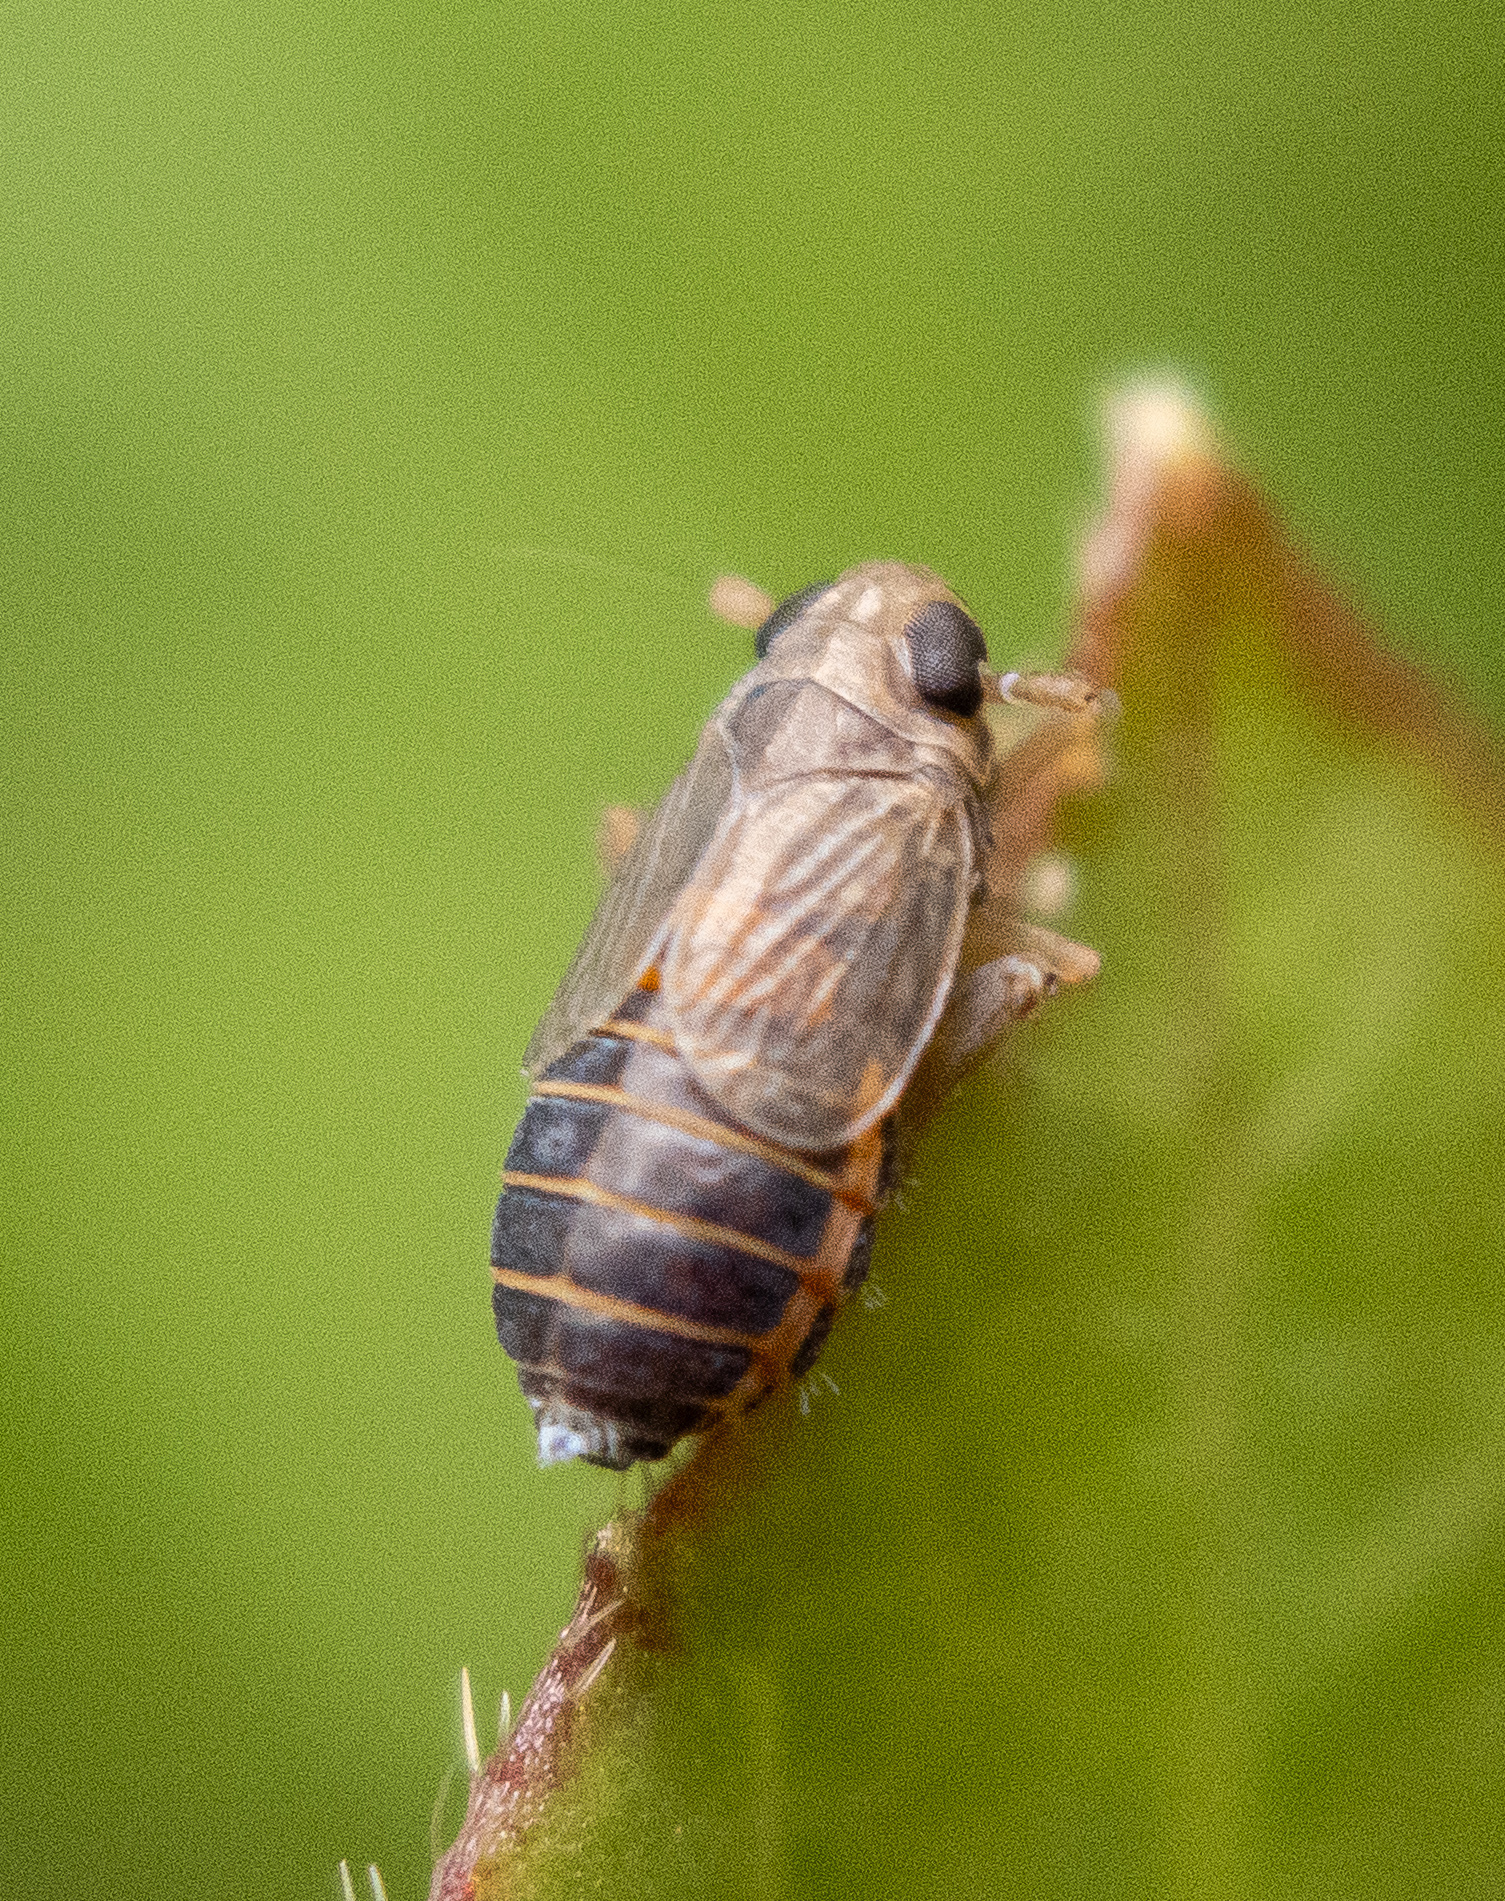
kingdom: Animalia
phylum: Arthropoda
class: Insecta
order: Hemiptera
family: Delphacidae
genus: Kosswigianella
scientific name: Kosswigianella perusta
